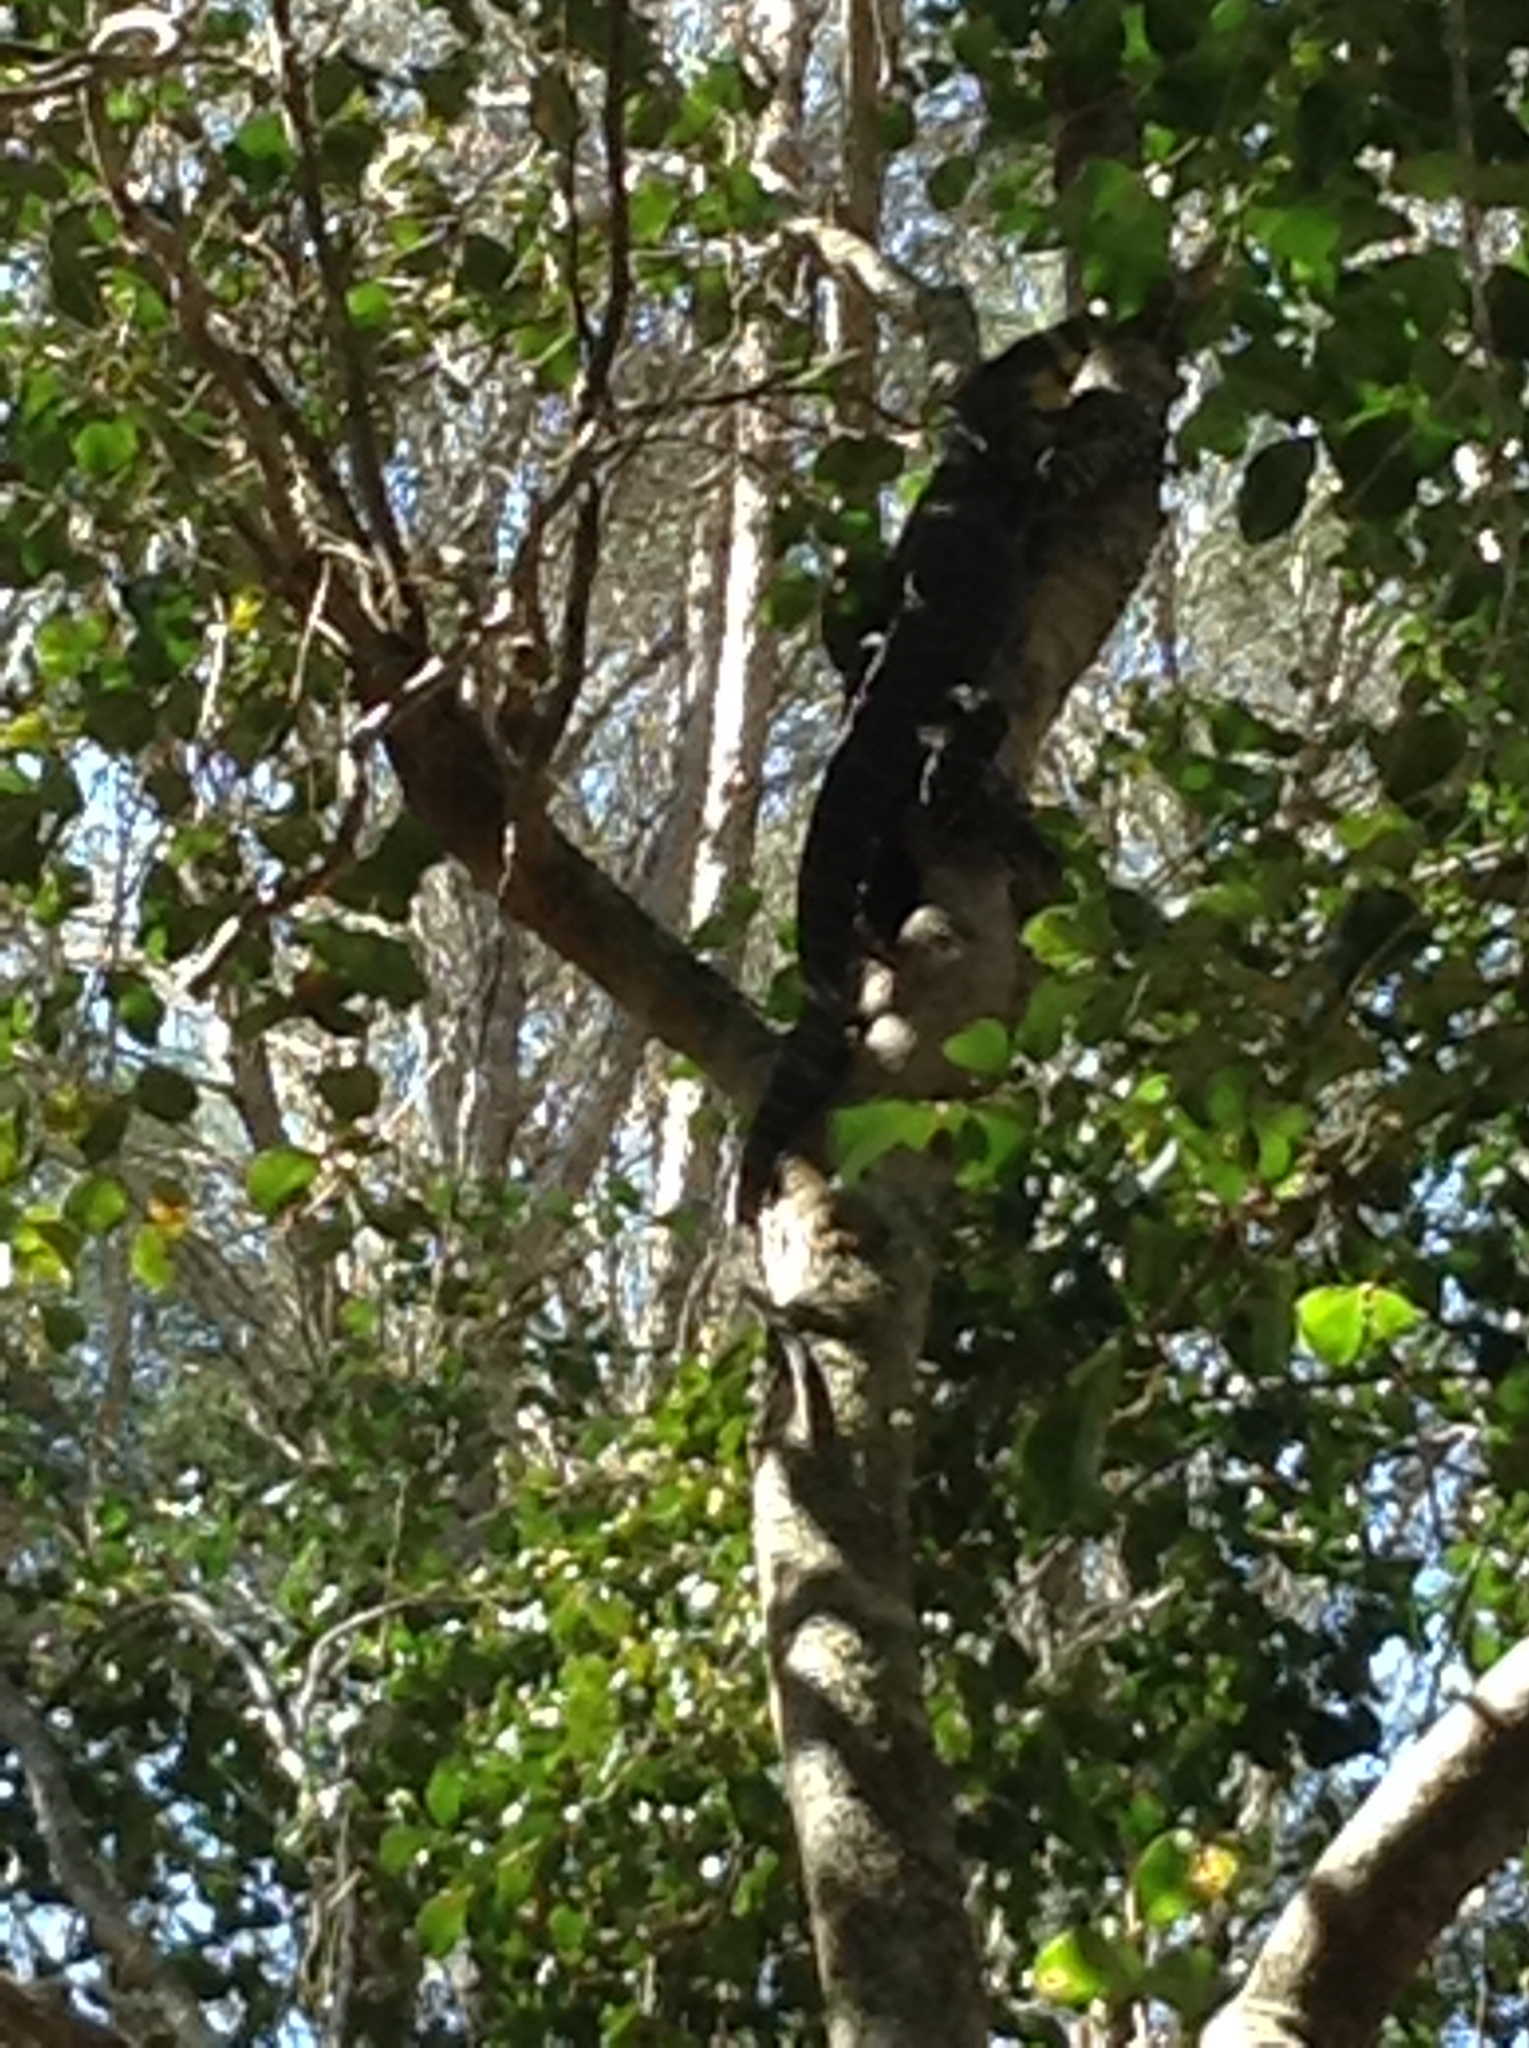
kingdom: Animalia
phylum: Chordata
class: Squamata
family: Varanidae
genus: Varanus
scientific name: Varanus varius
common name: Lace monitor
